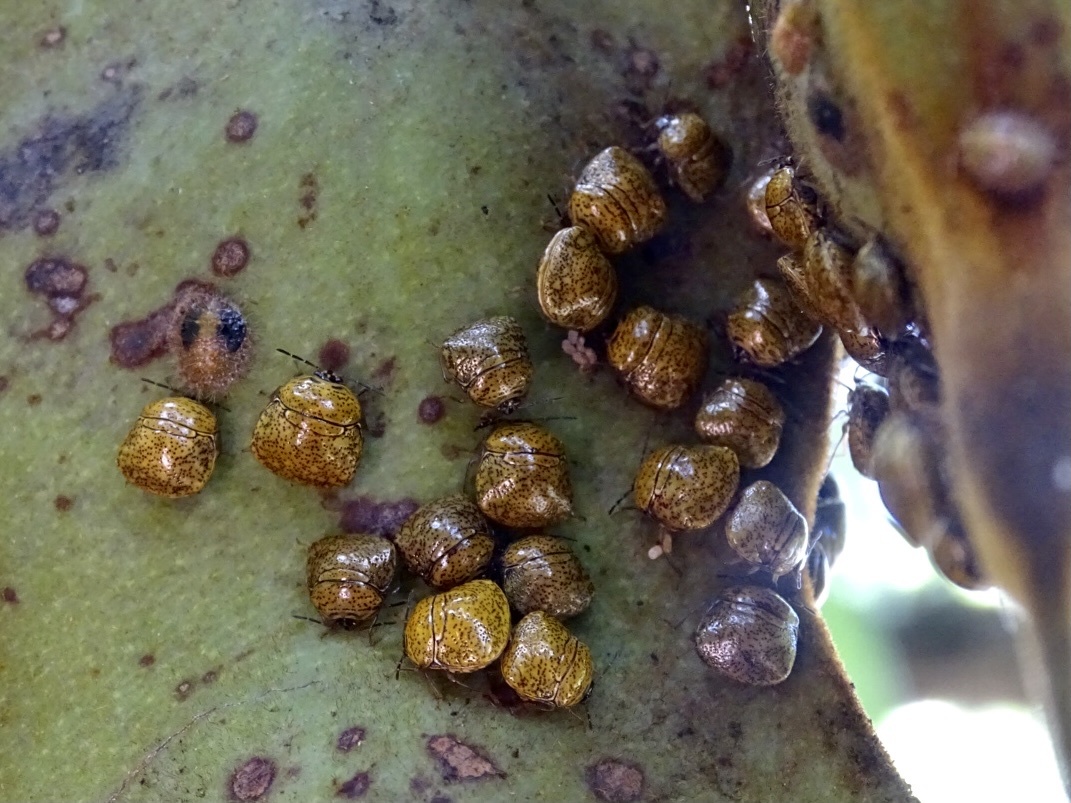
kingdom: Animalia
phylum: Arthropoda
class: Insecta
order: Hemiptera
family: Plataspidae
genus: Megacopta
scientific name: Megacopta cribraria
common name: Bean plataspid
